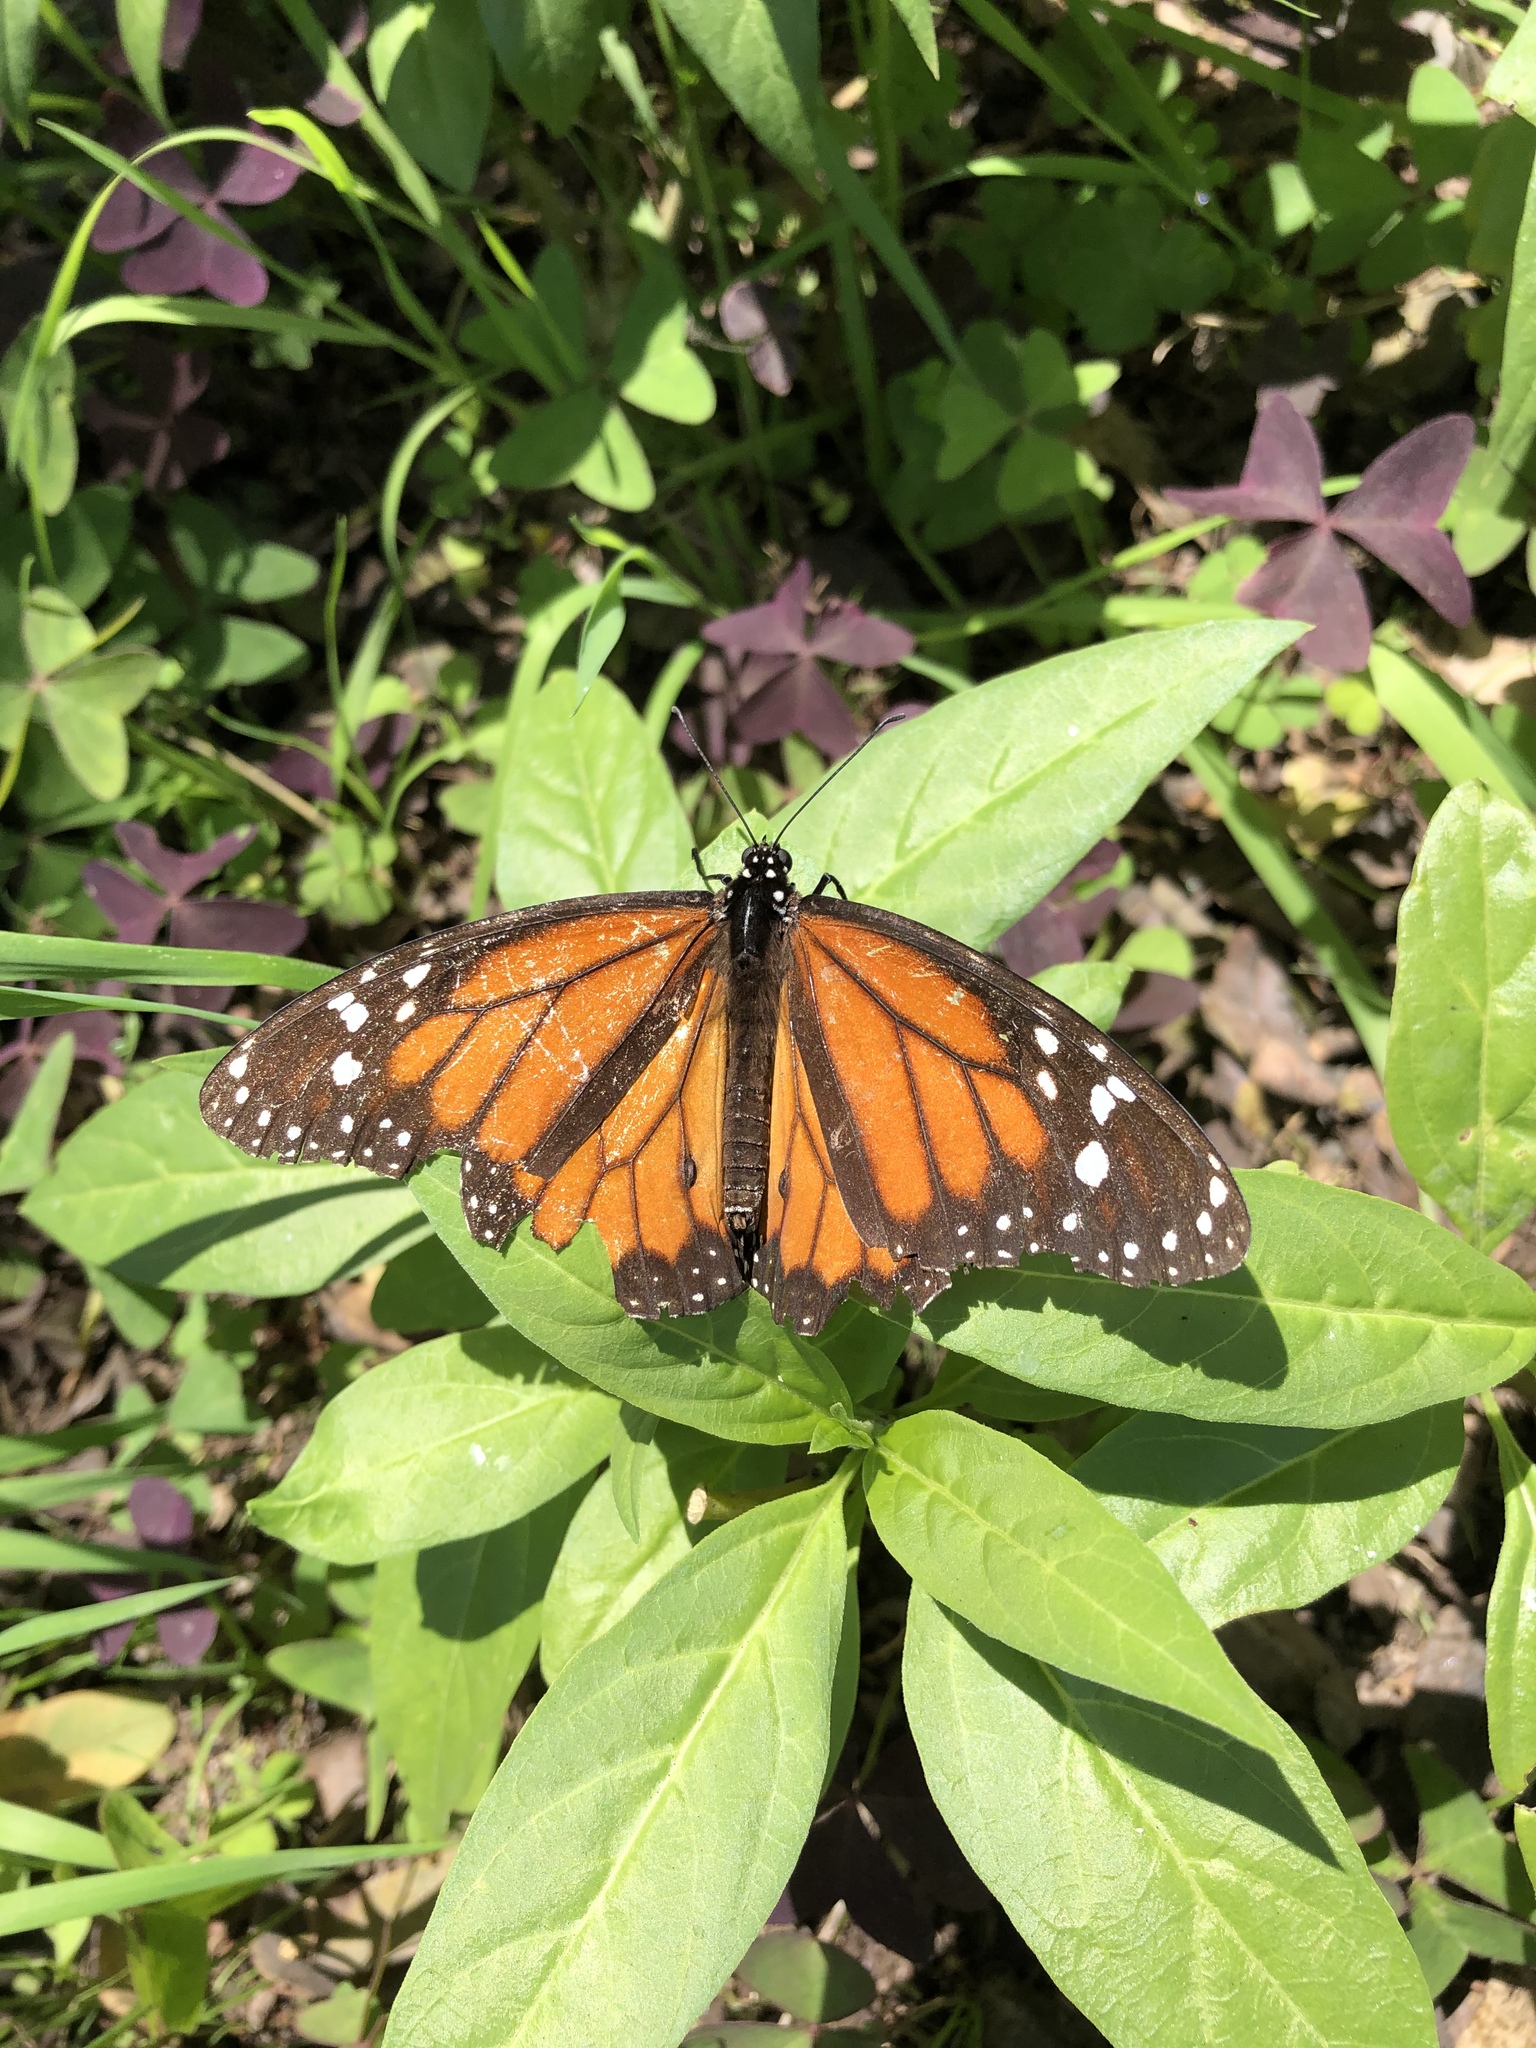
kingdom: Animalia
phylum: Arthropoda
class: Insecta
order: Lepidoptera
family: Nymphalidae
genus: Danaus
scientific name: Danaus plexippus
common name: Monarch
